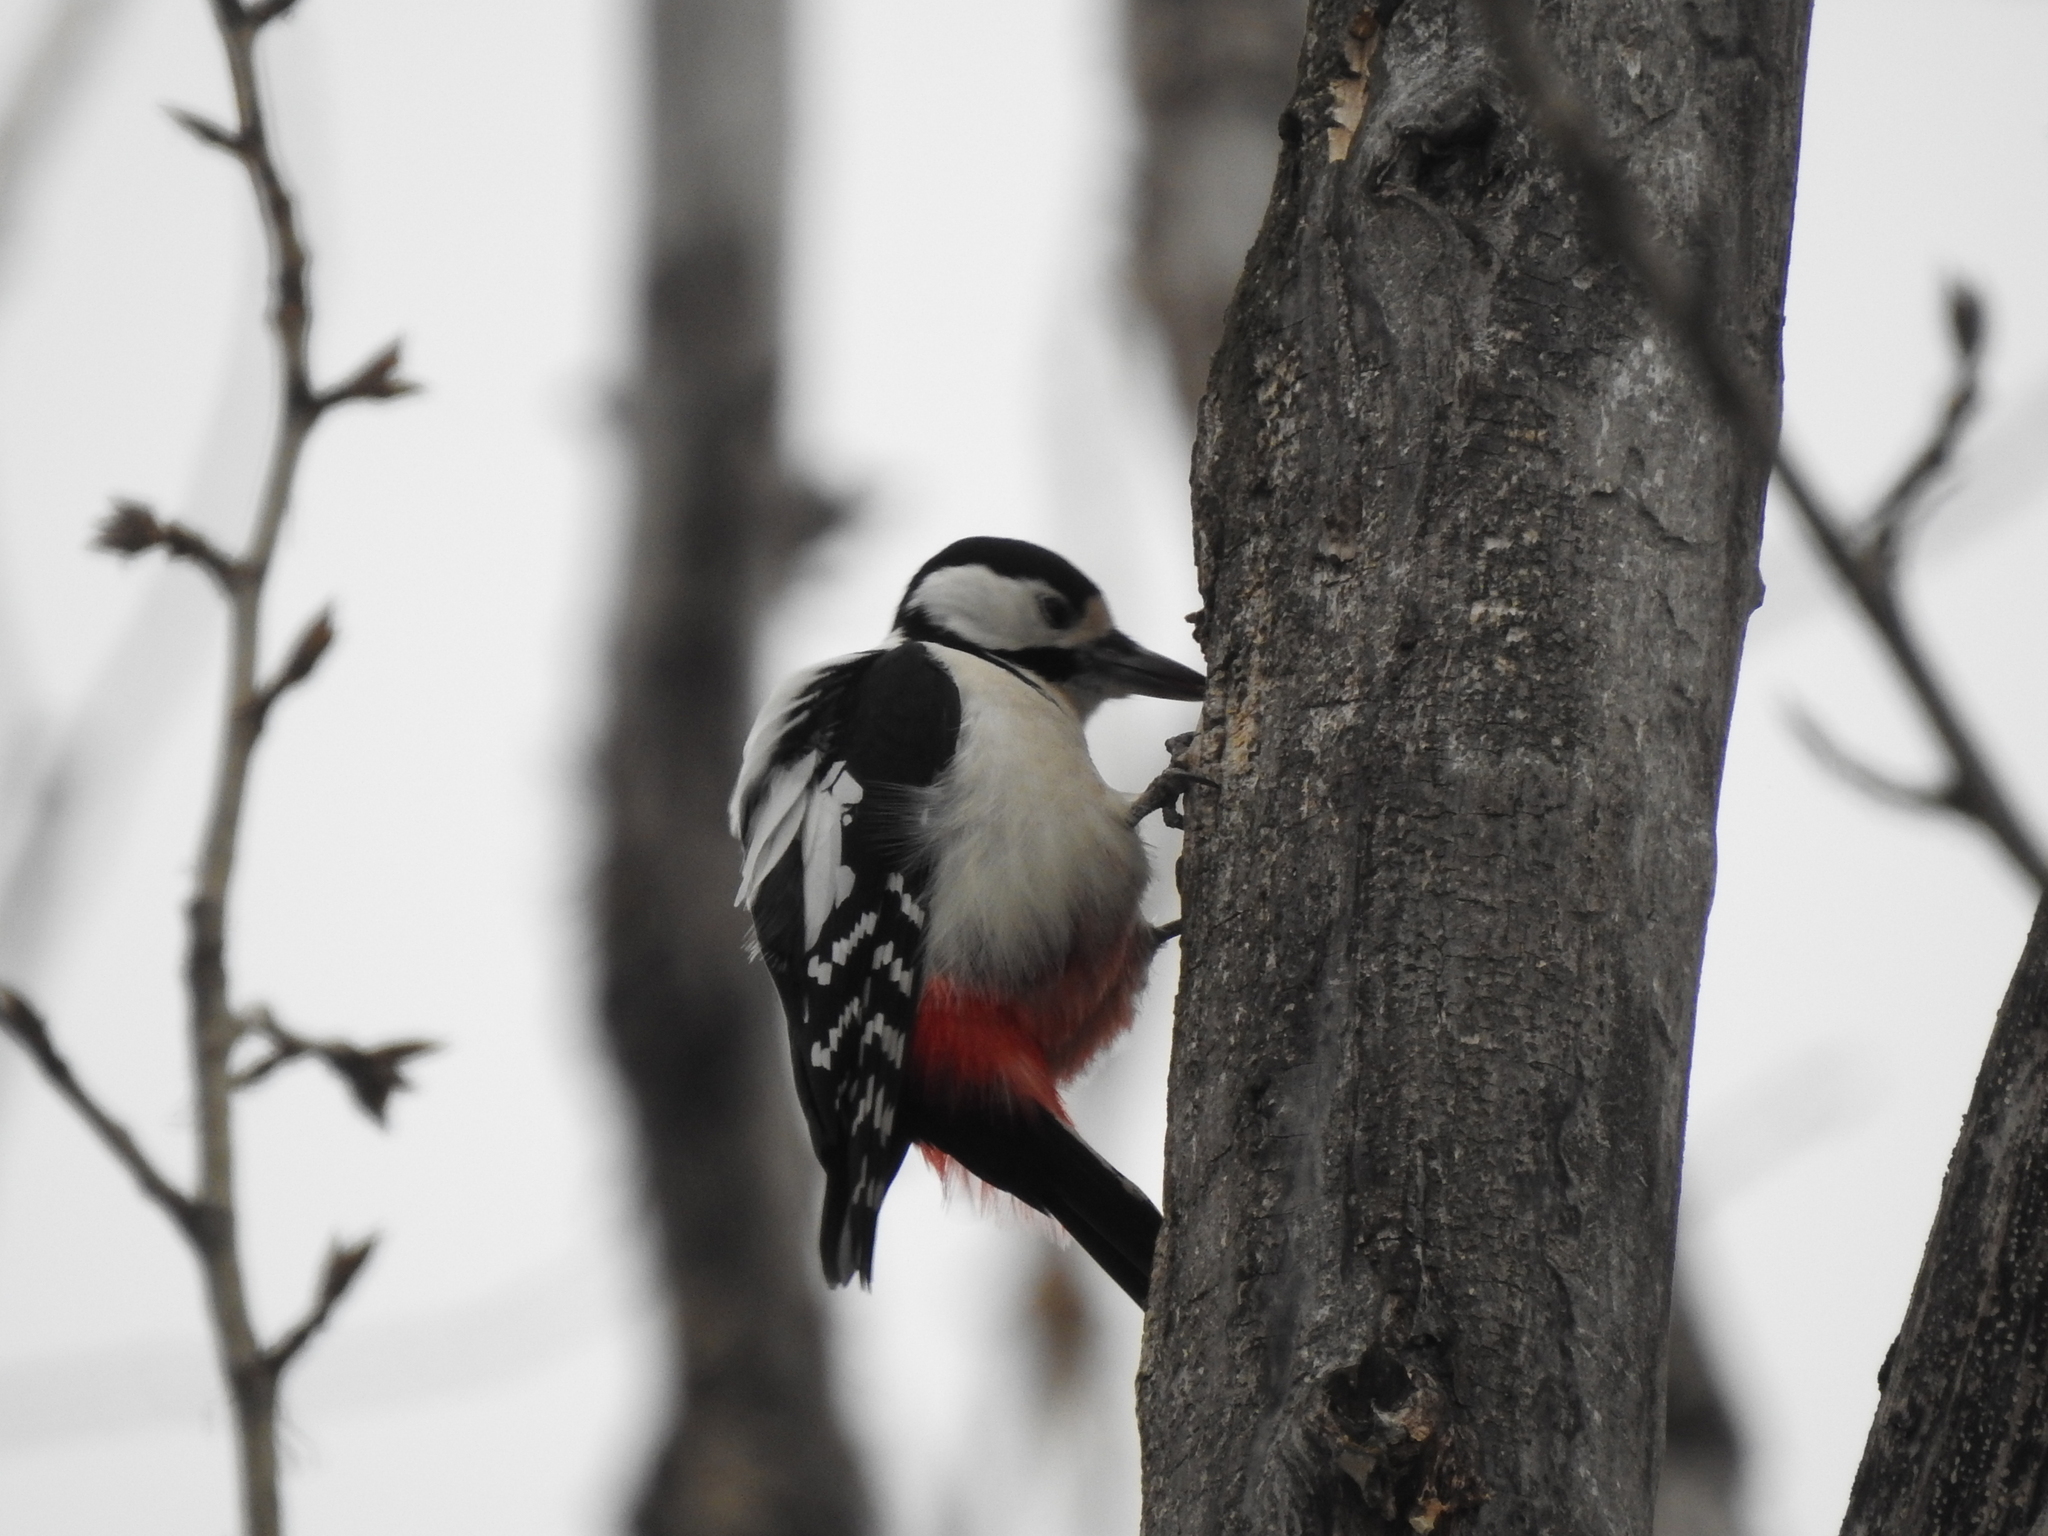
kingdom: Animalia
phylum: Chordata
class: Aves
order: Piciformes
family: Picidae
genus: Dendrocopos
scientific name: Dendrocopos major
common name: Great spotted woodpecker
